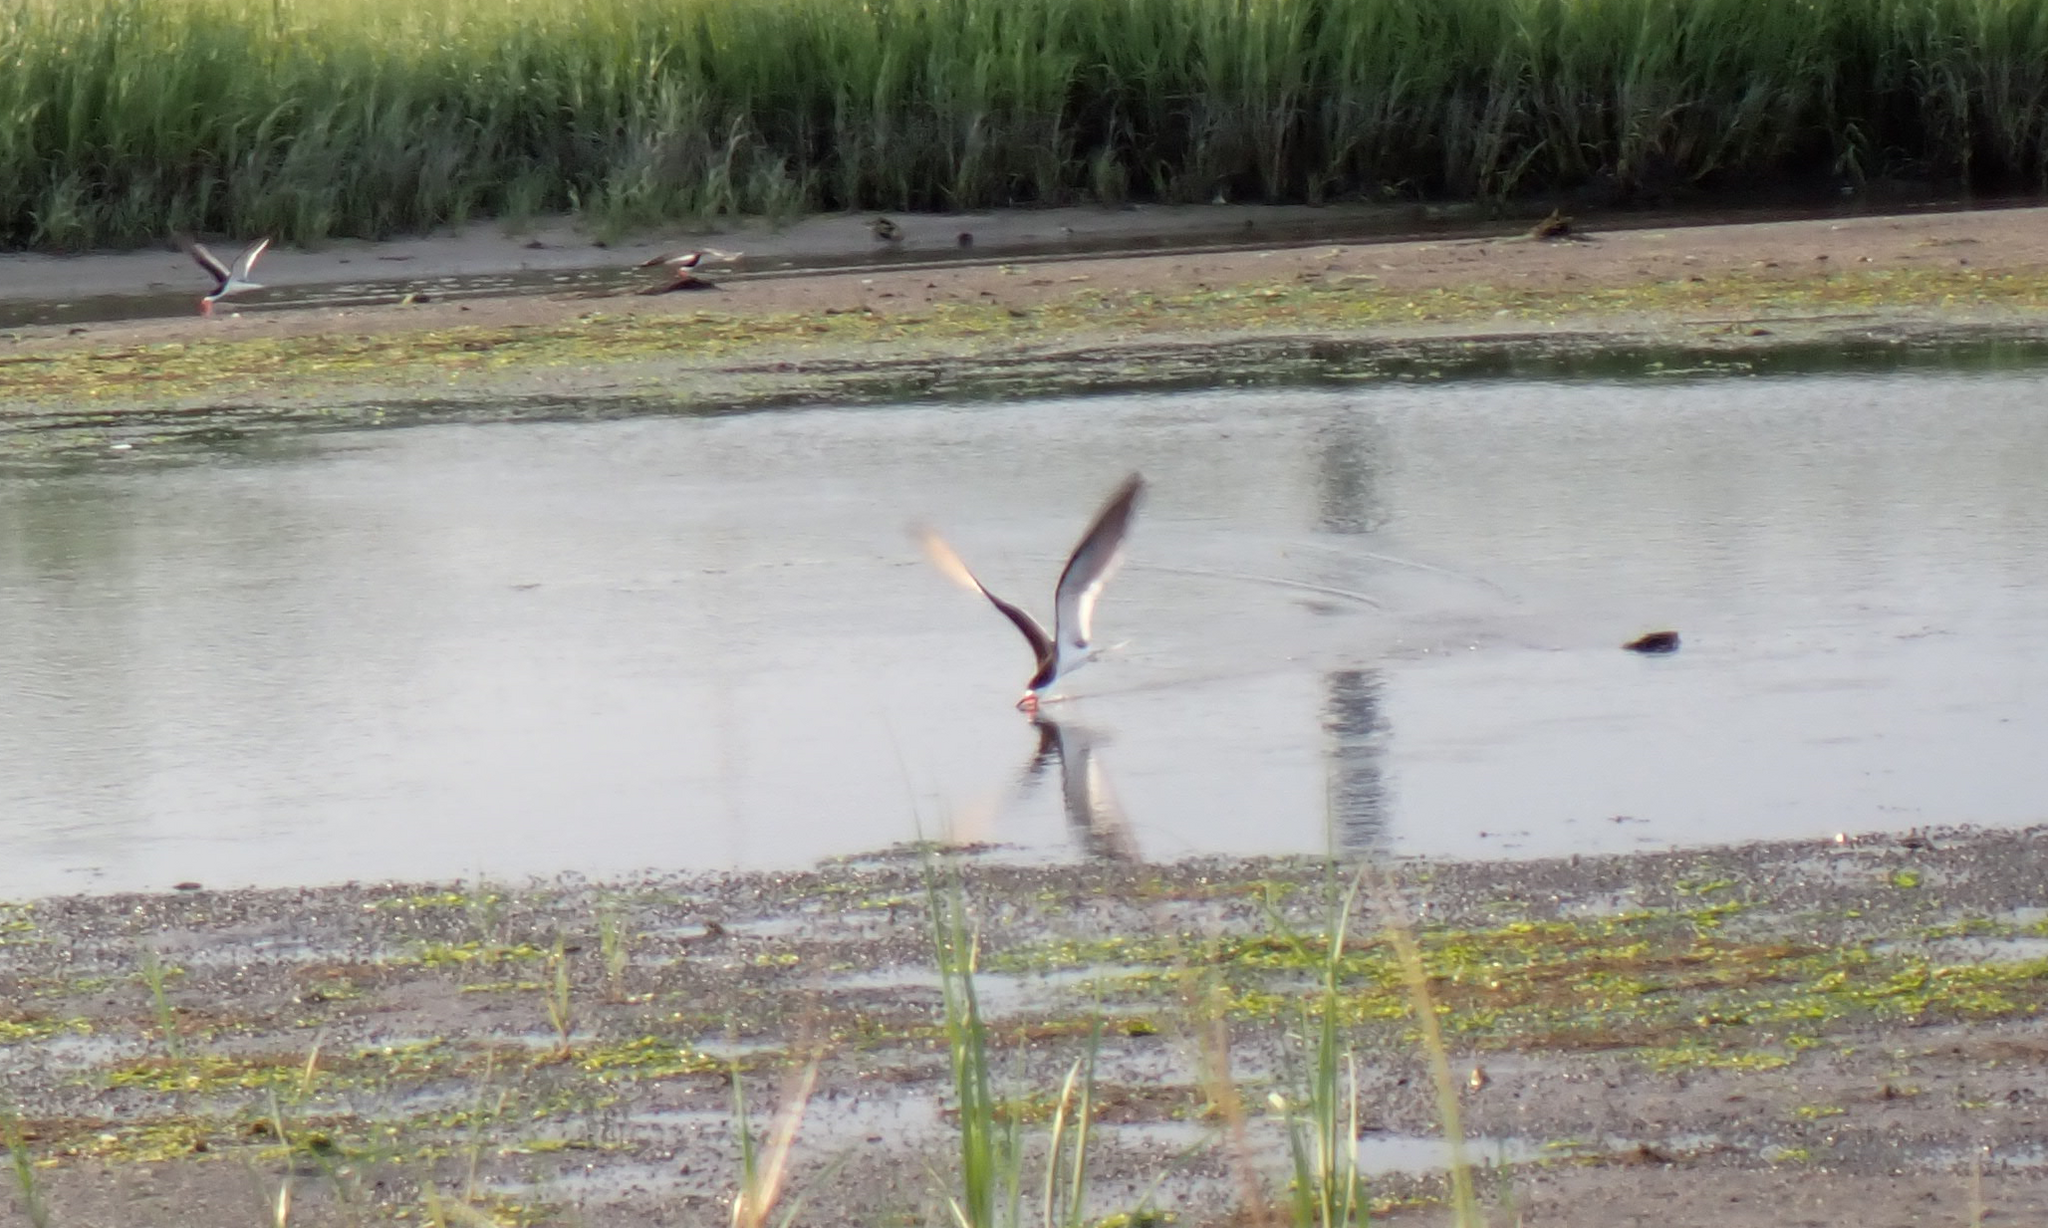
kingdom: Animalia
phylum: Chordata
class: Aves
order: Charadriiformes
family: Laridae
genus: Rynchops
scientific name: Rynchops niger
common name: Black skimmer
